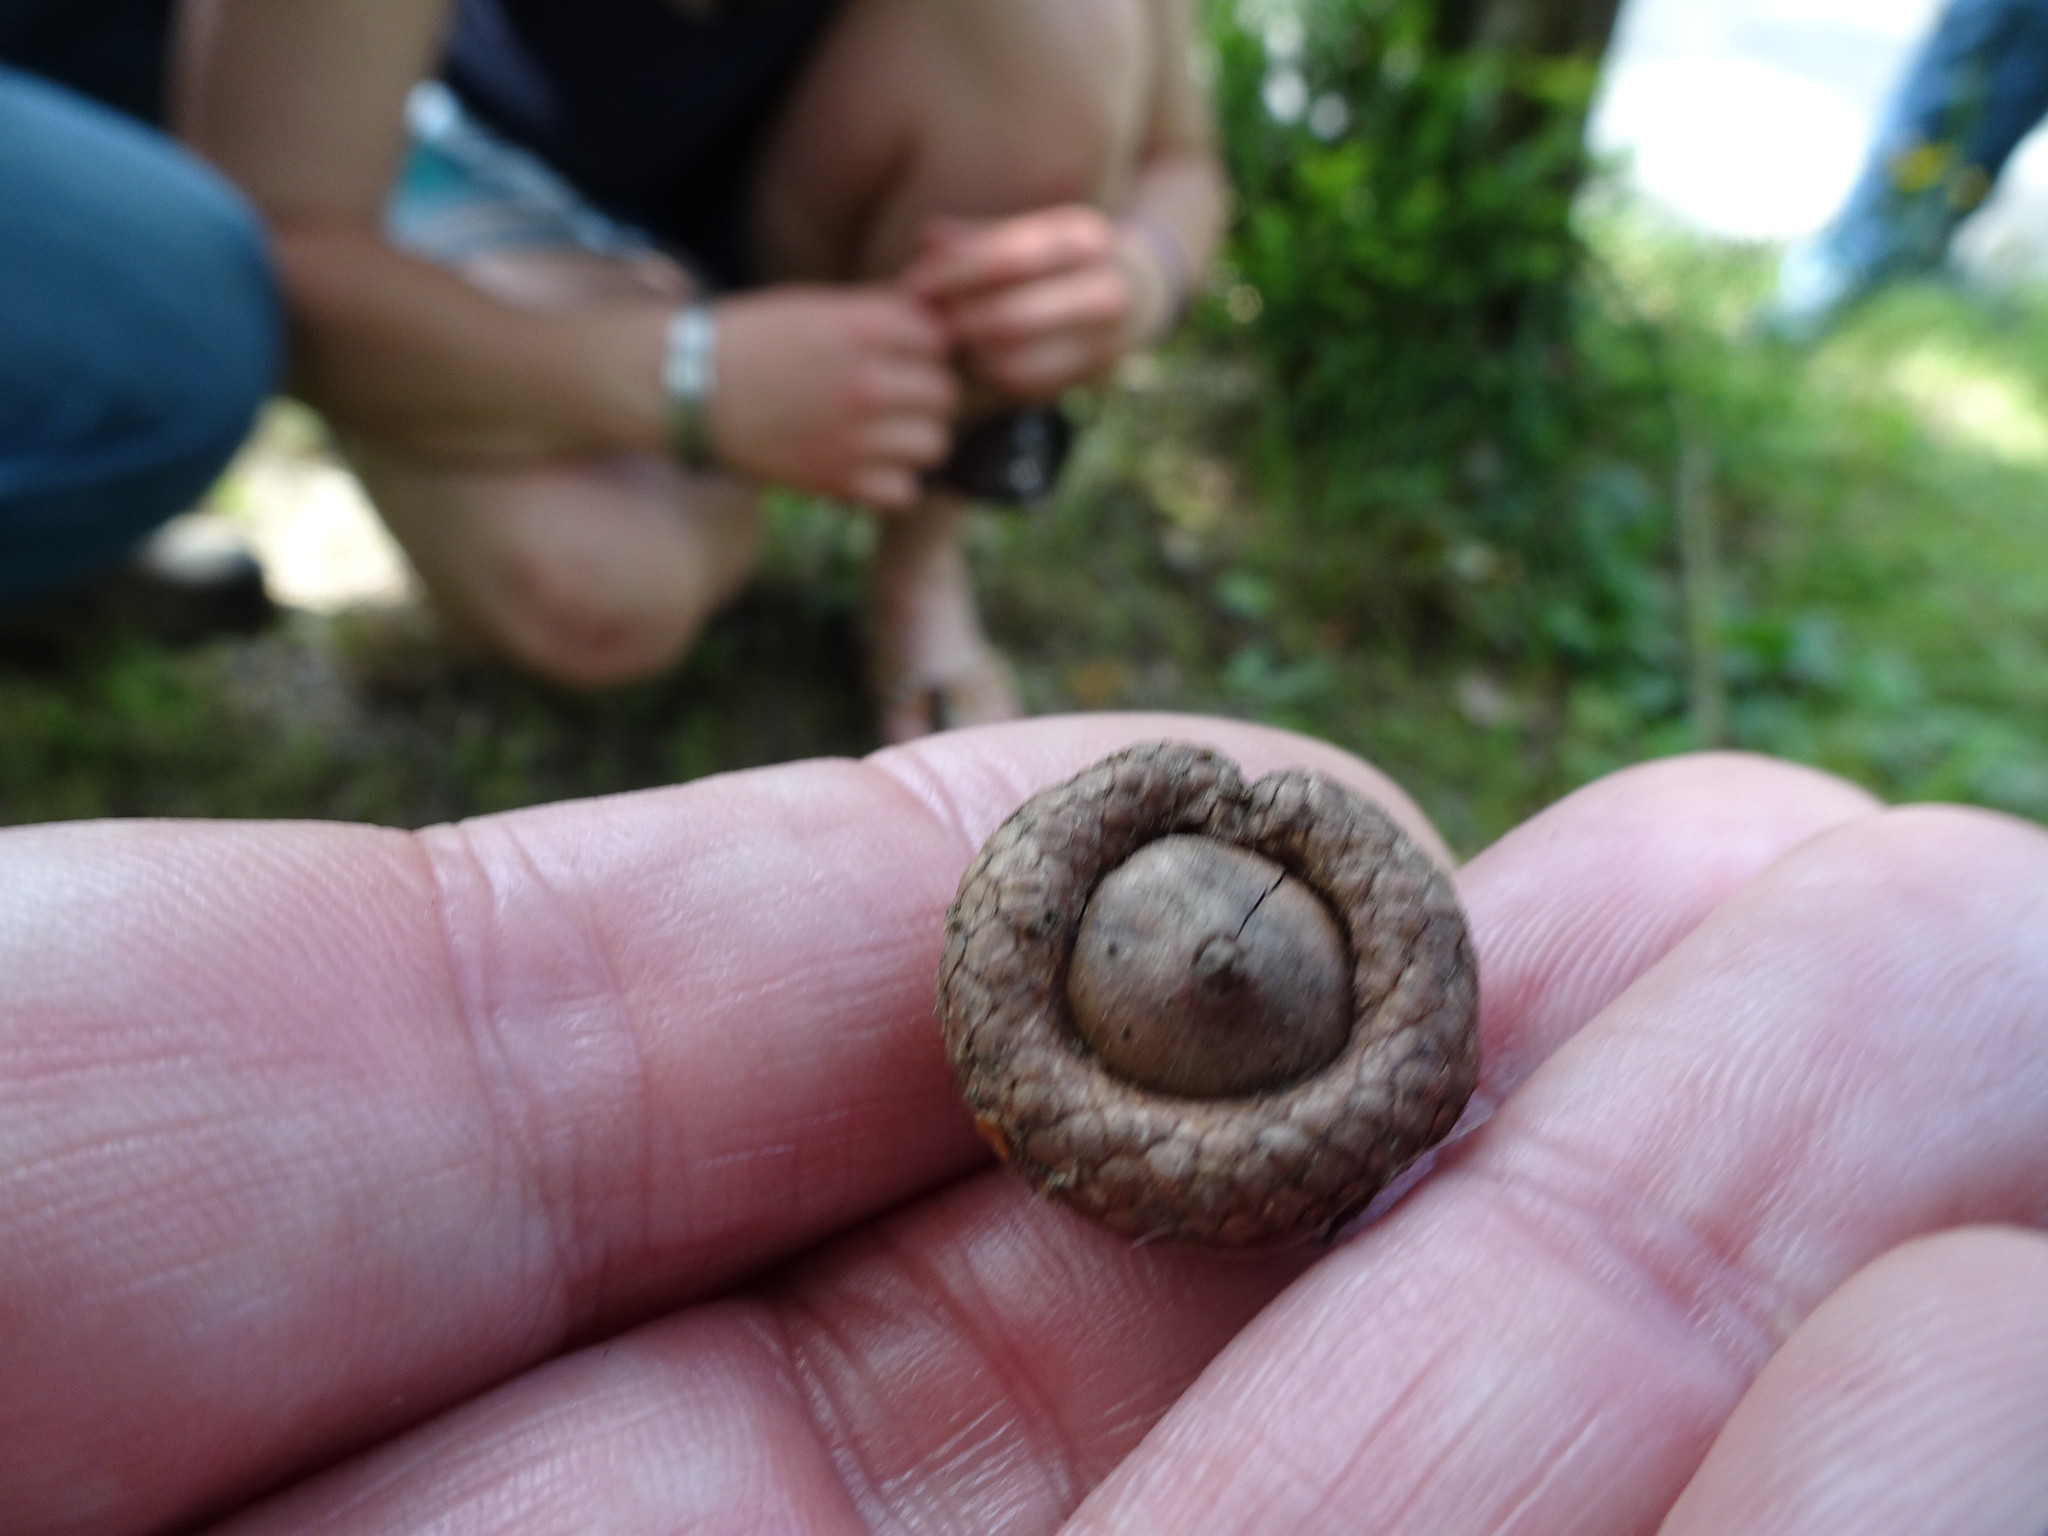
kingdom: Plantae
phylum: Tracheophyta
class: Magnoliopsida
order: Fagales
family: Fagaceae
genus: Quercus
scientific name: Quercus rubra
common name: Red oak
